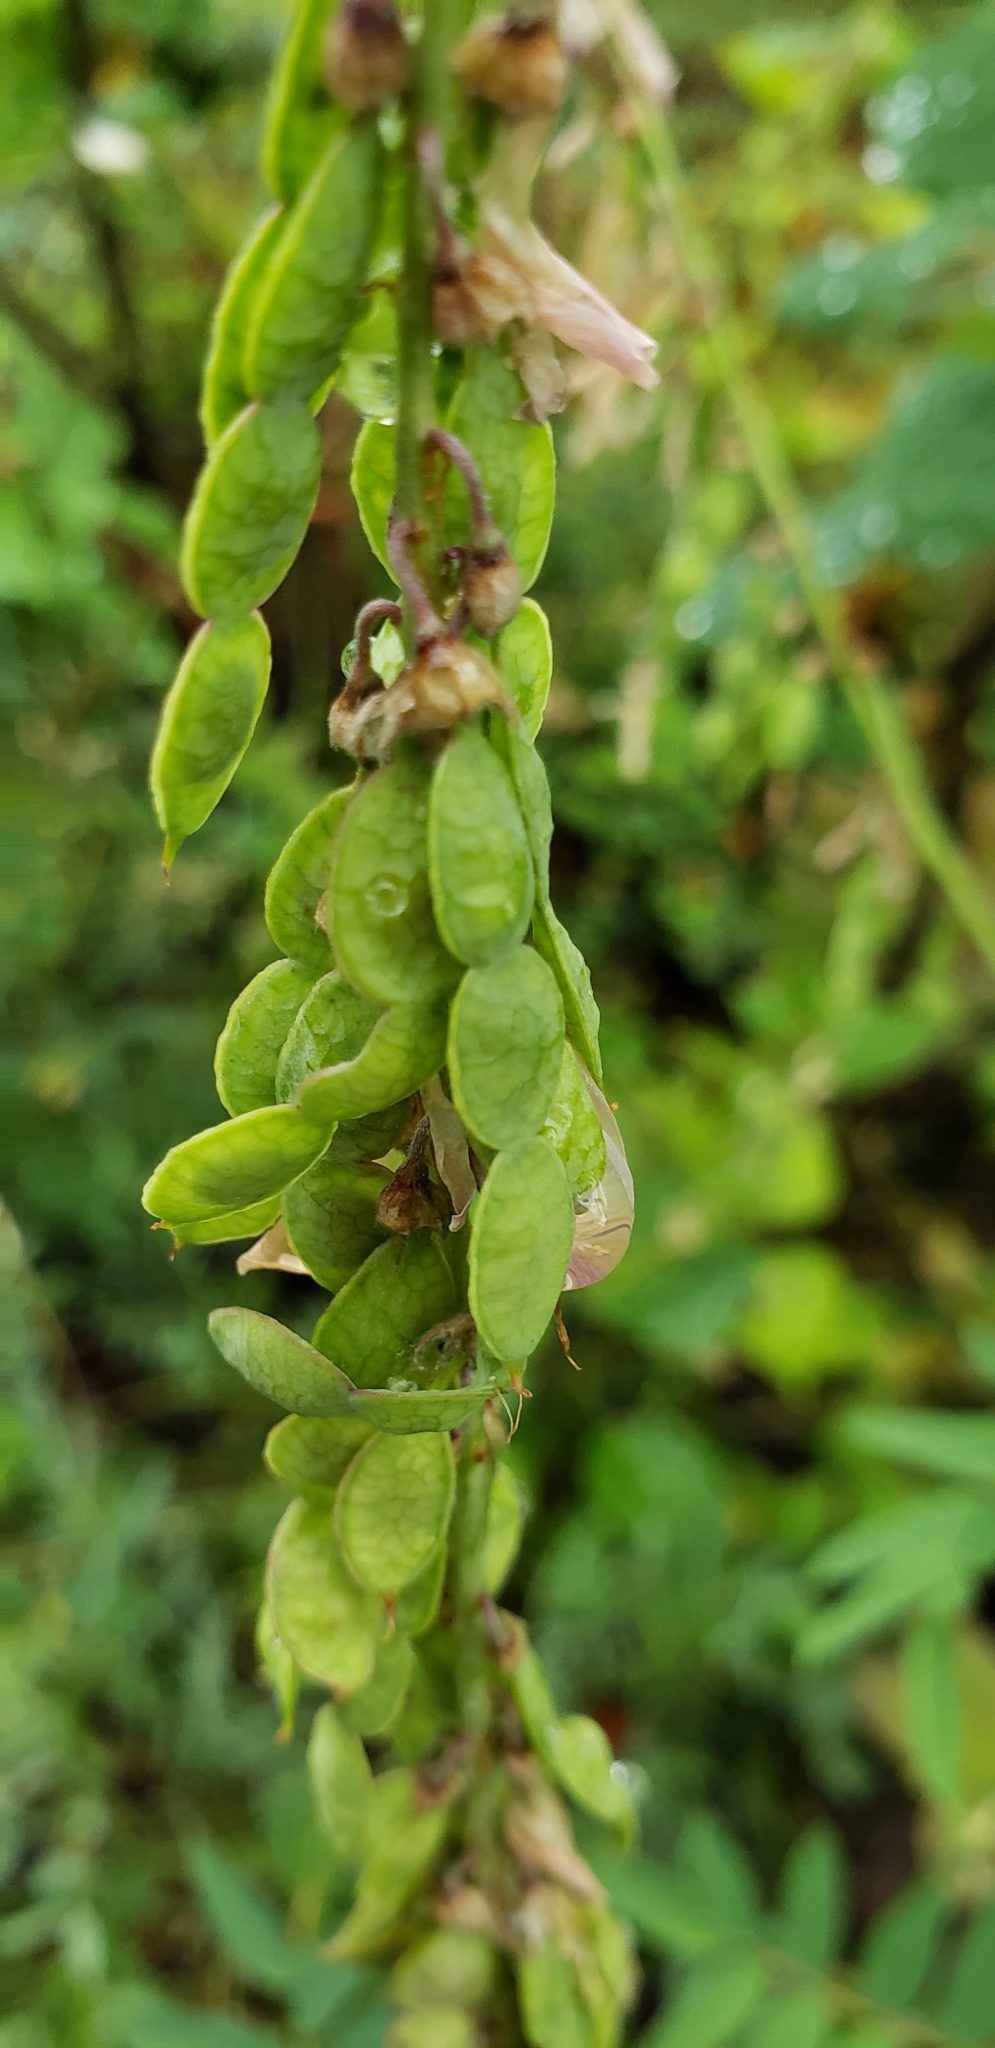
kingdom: Plantae
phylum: Tracheophyta
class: Magnoliopsida
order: Fabales
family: Fabaceae
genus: Hedysarum
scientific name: Hedysarum alpinum
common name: Alpine sweet-vetch
